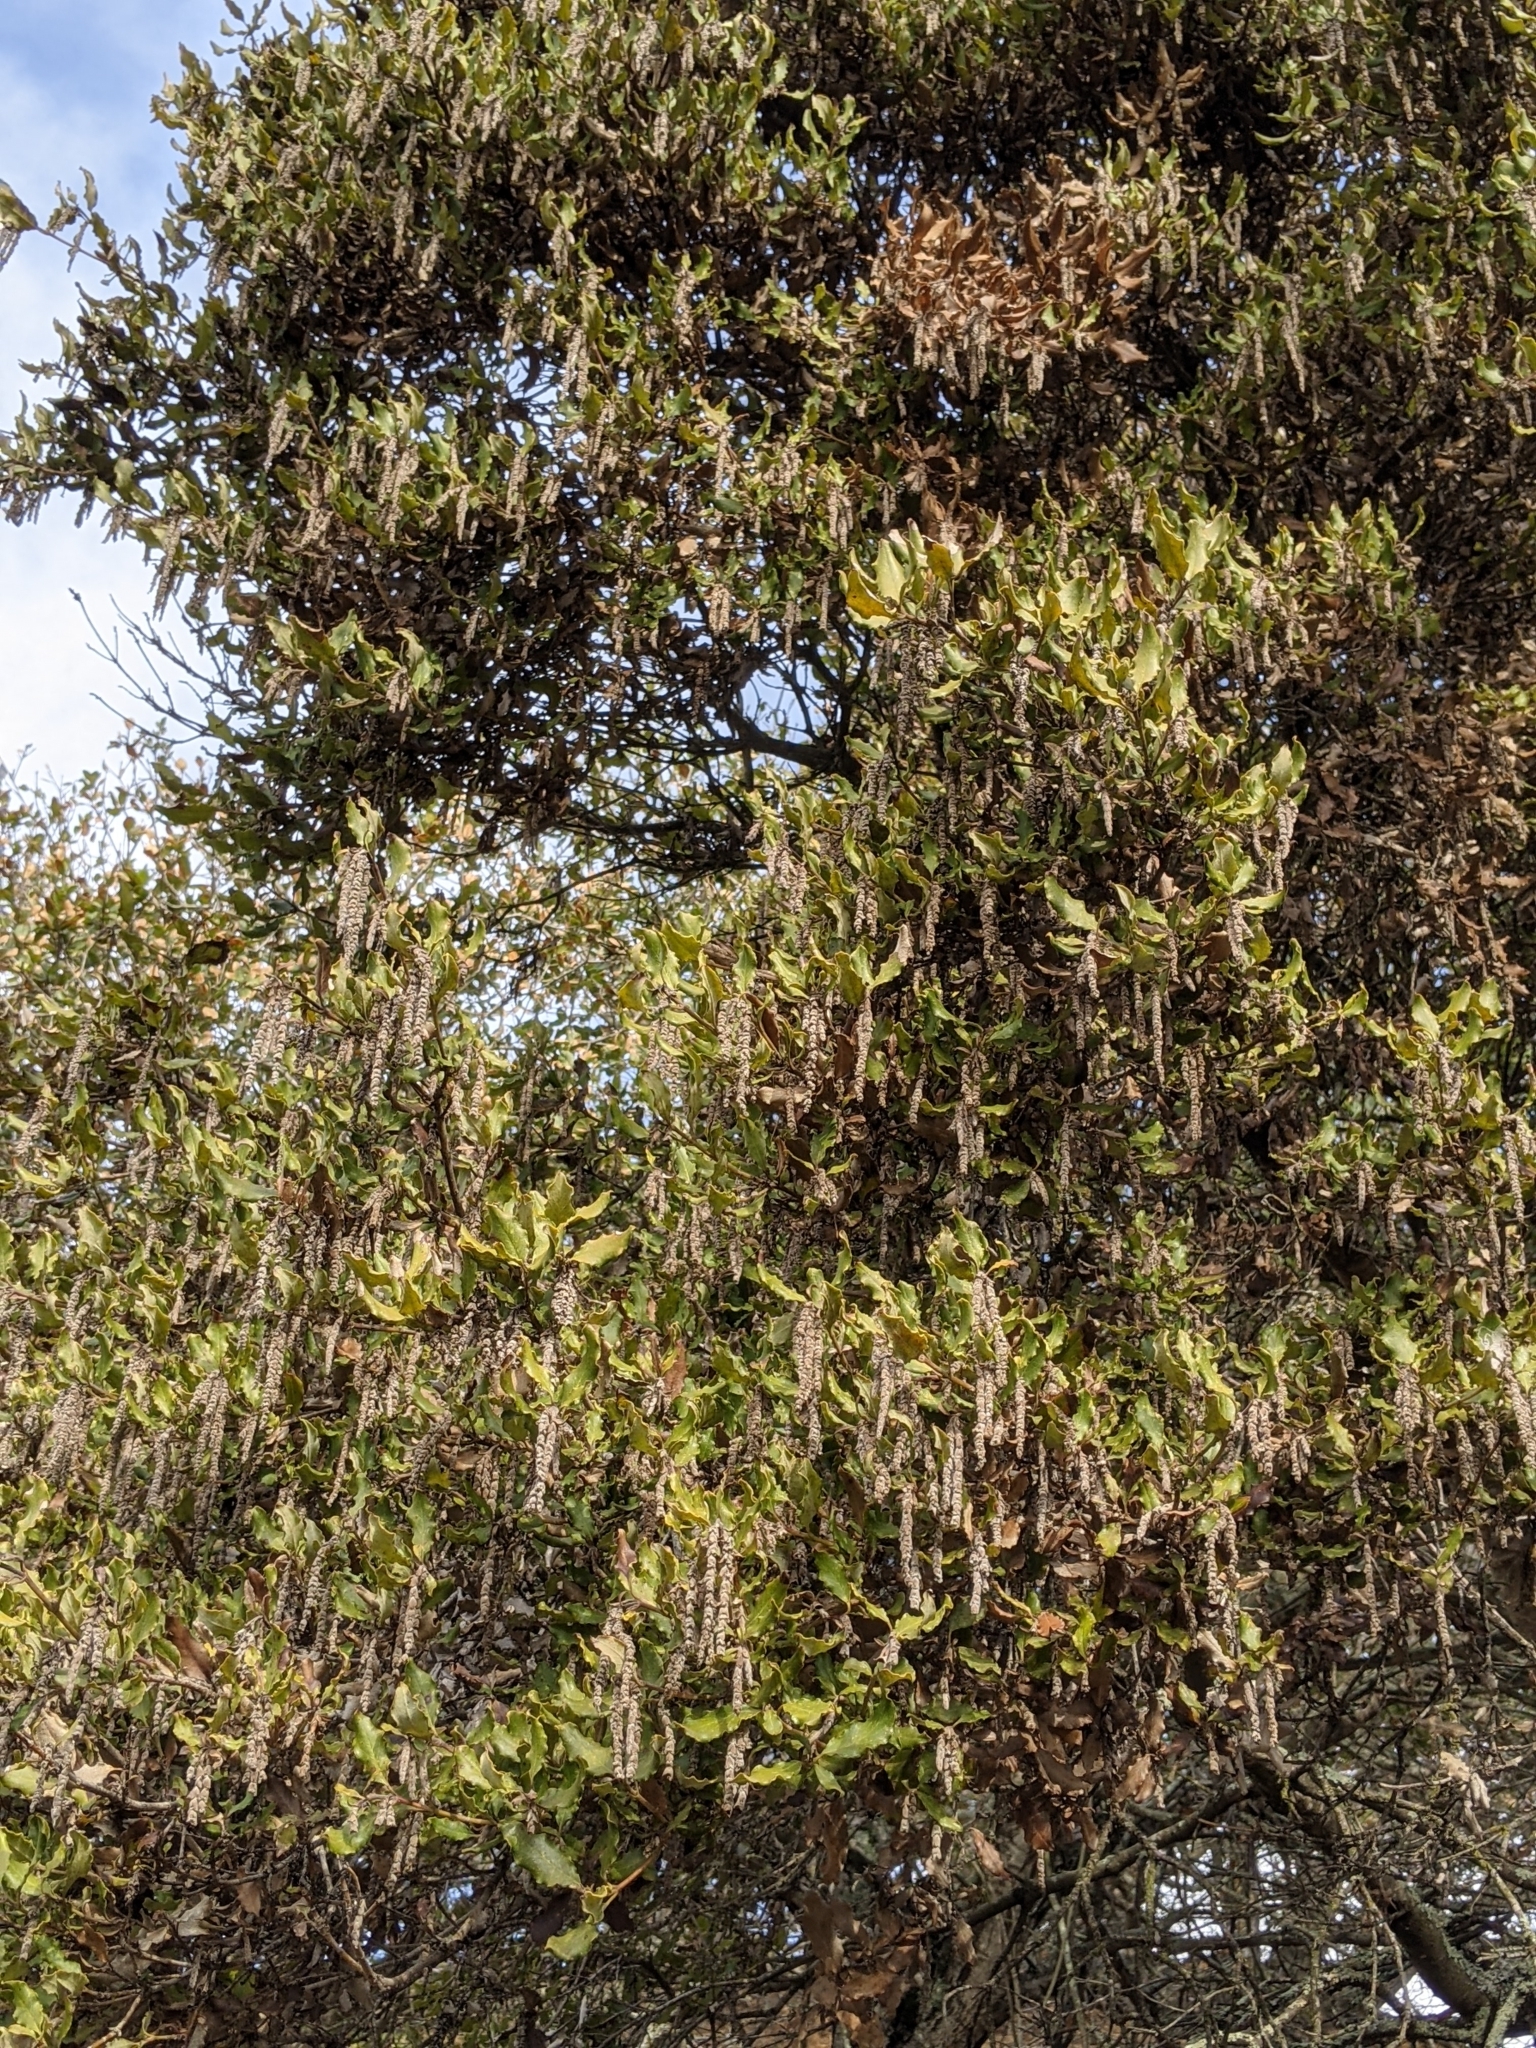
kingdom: Plantae
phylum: Tracheophyta
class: Magnoliopsida
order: Garryales
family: Garryaceae
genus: Garrya
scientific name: Garrya elliptica
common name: Silk-tassel
